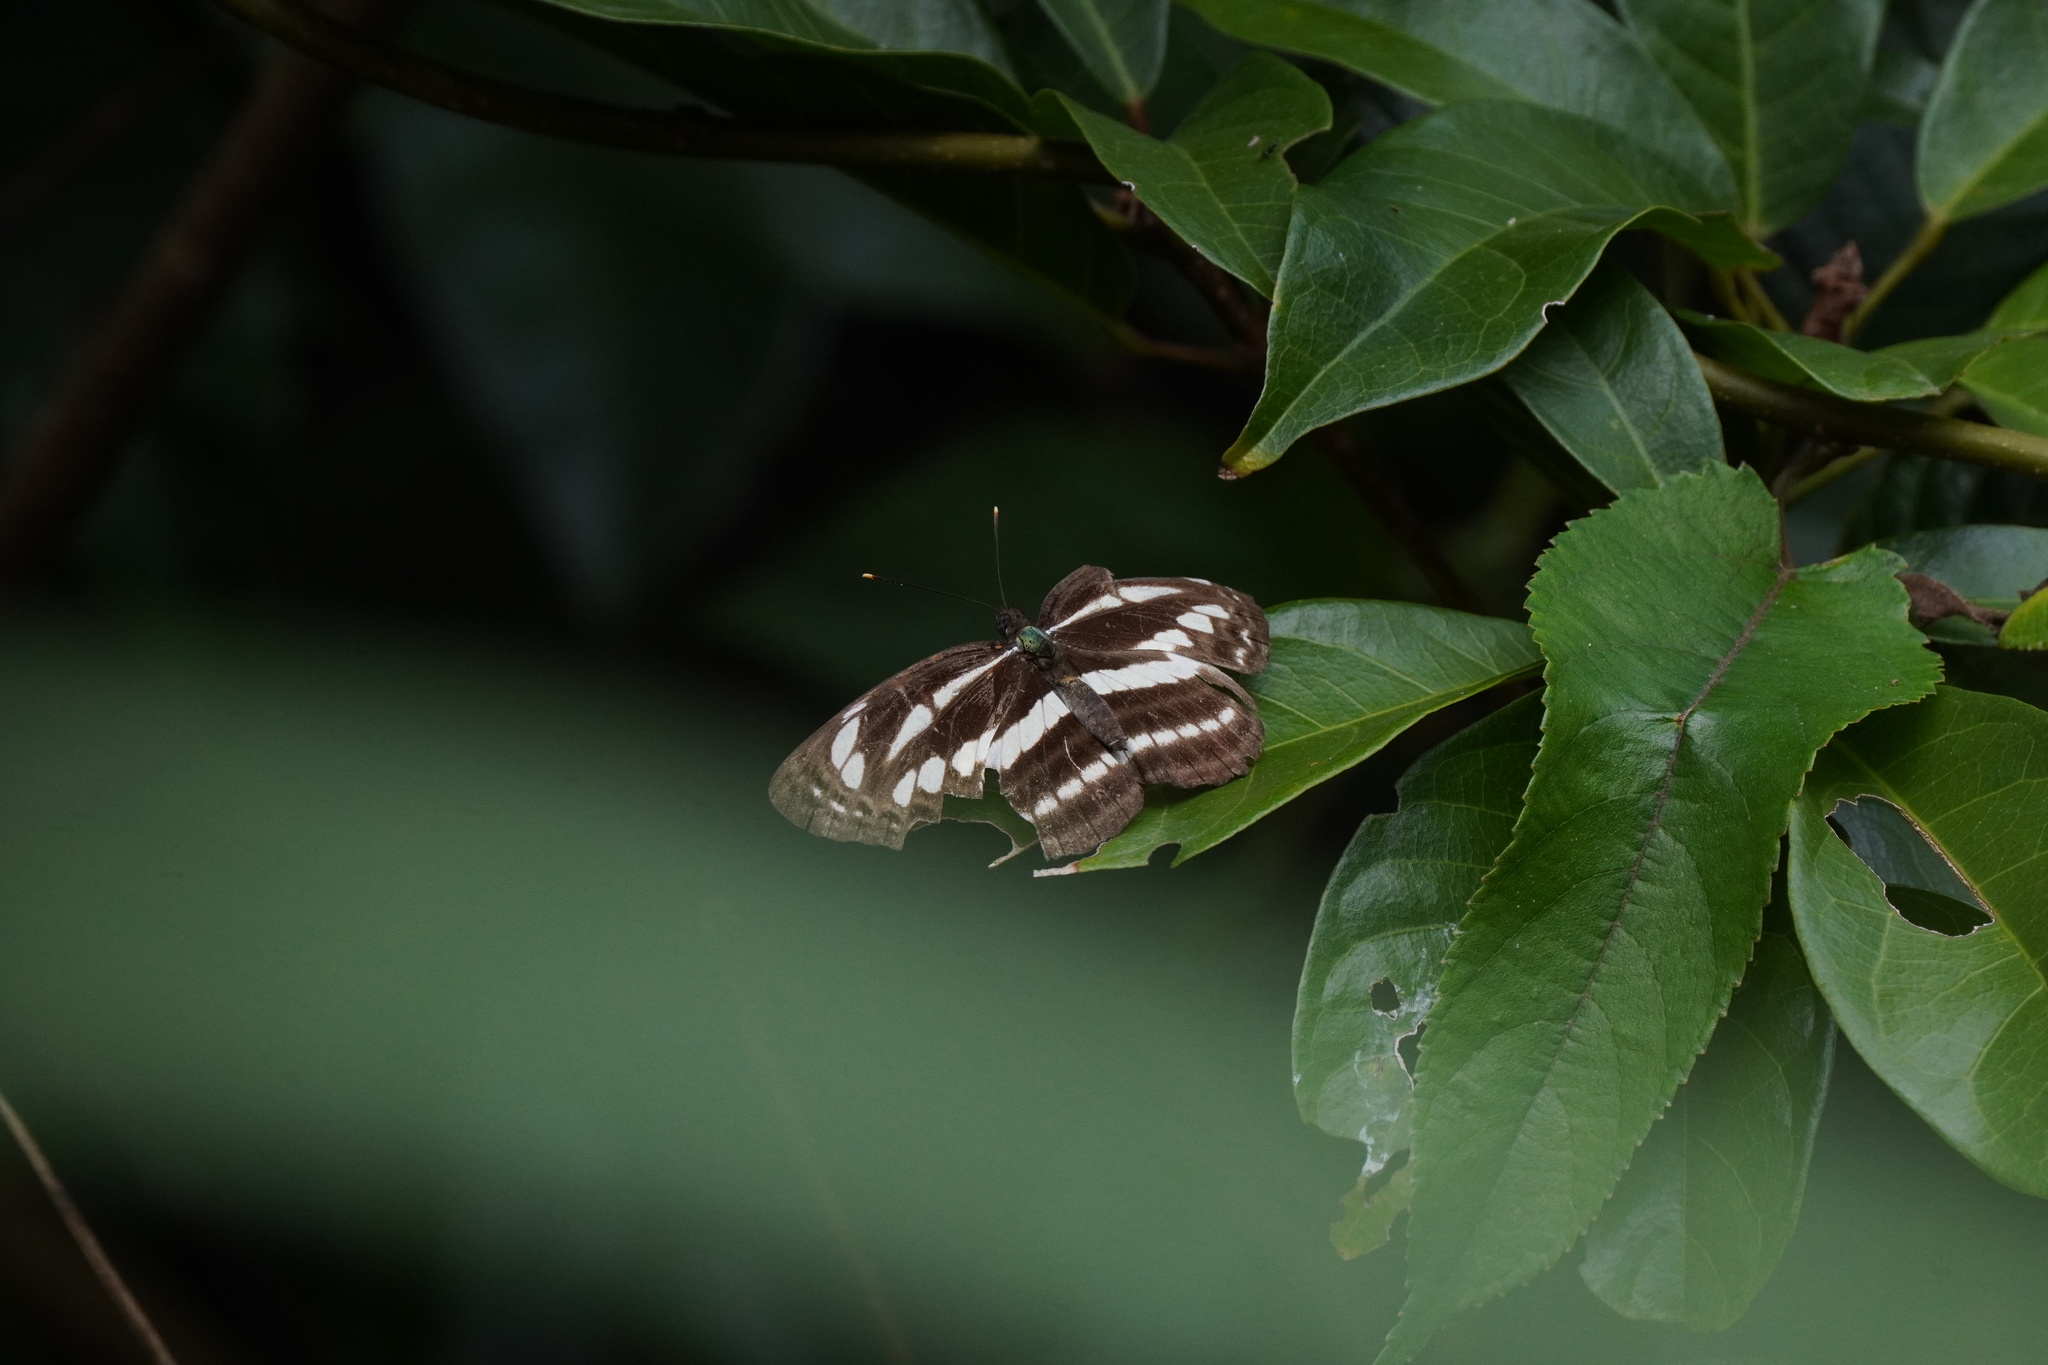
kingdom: Animalia
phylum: Arthropoda
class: Insecta
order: Lepidoptera
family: Nymphalidae
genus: Neptis
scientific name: Neptis clinia
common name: Southern sullied sailer
